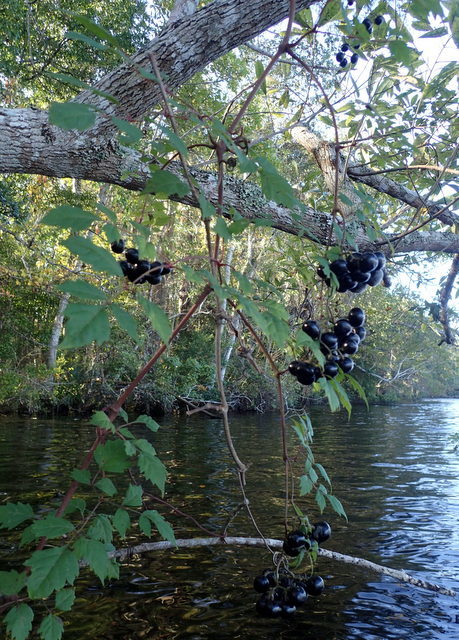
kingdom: Plantae
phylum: Tracheophyta
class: Magnoliopsida
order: Vitales
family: Vitaceae
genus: Nekemias
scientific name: Nekemias arborea
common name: Peppervine
